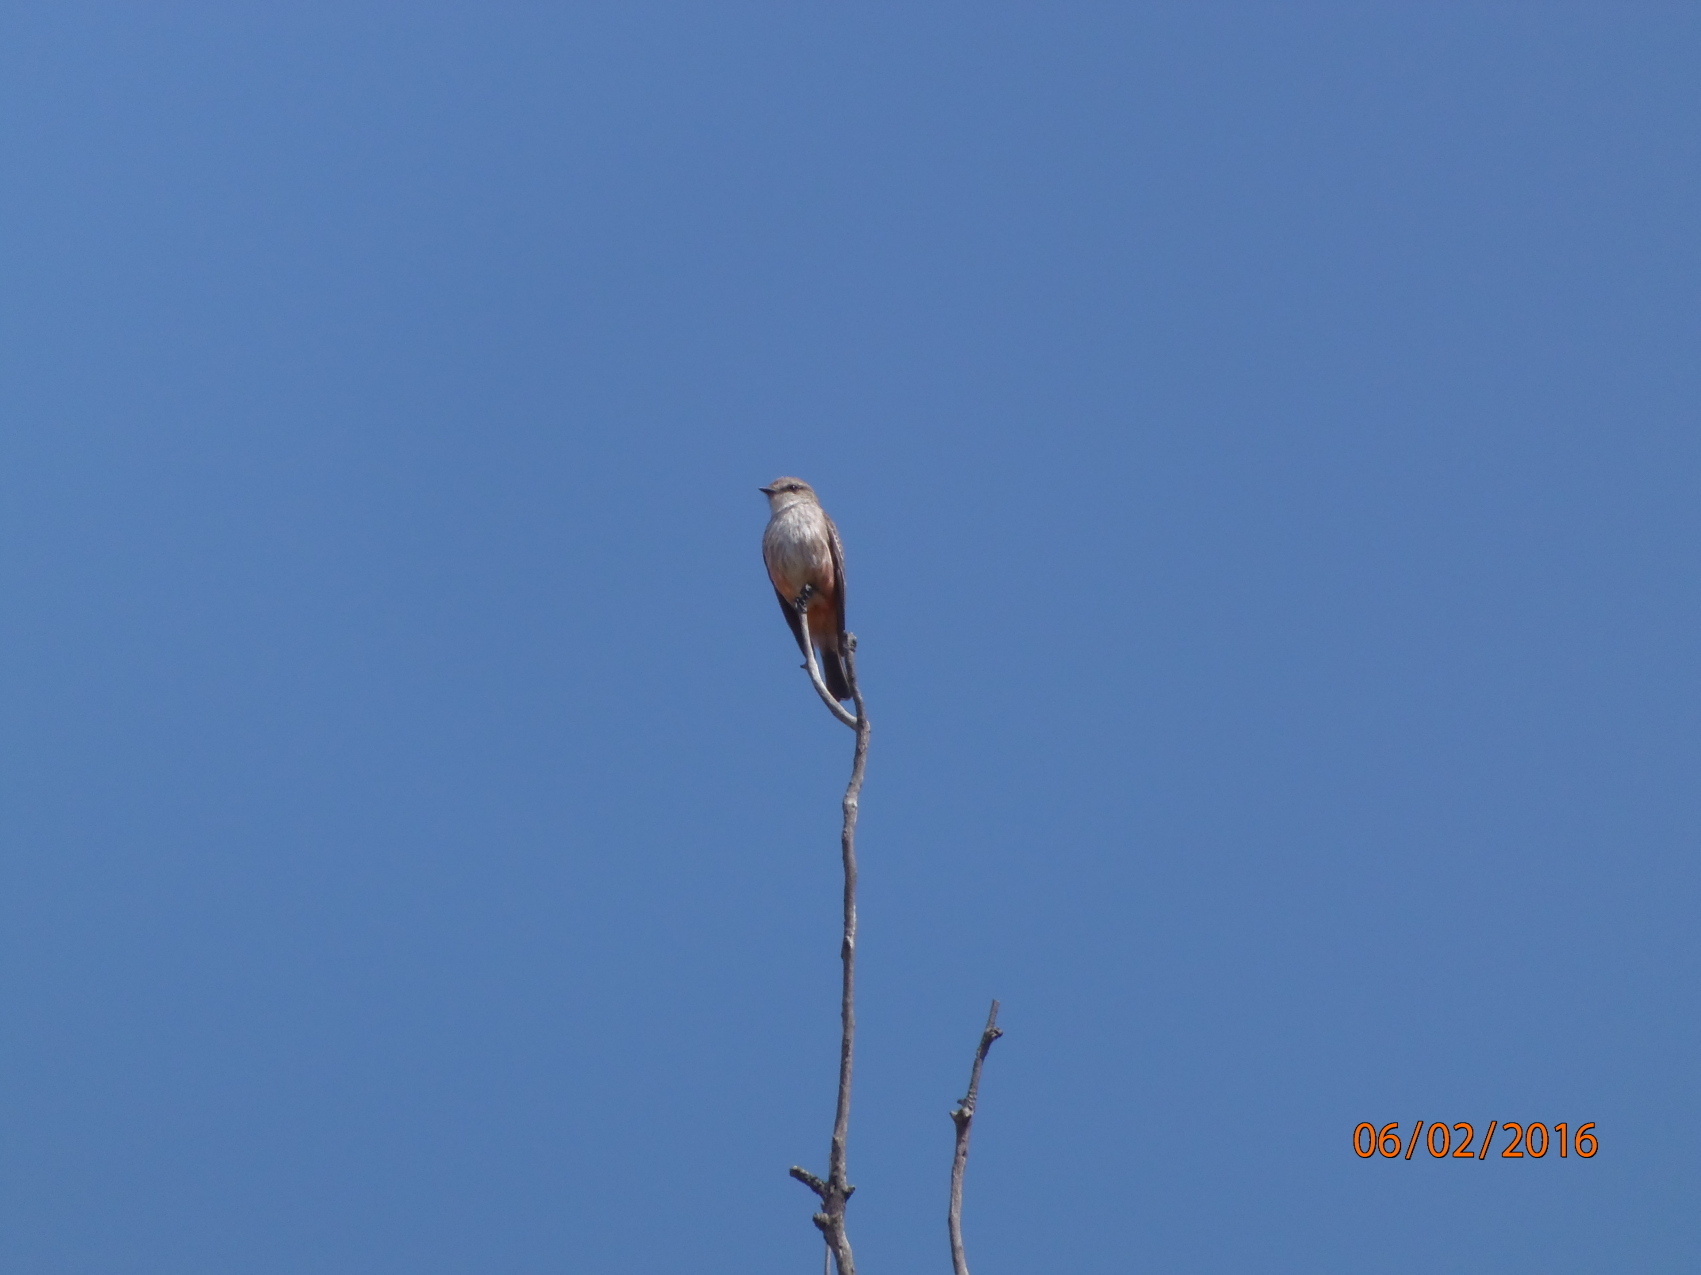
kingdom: Animalia
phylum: Chordata
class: Aves
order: Passeriformes
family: Tyrannidae
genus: Pyrocephalus
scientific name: Pyrocephalus rubinus
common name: Vermilion flycatcher
